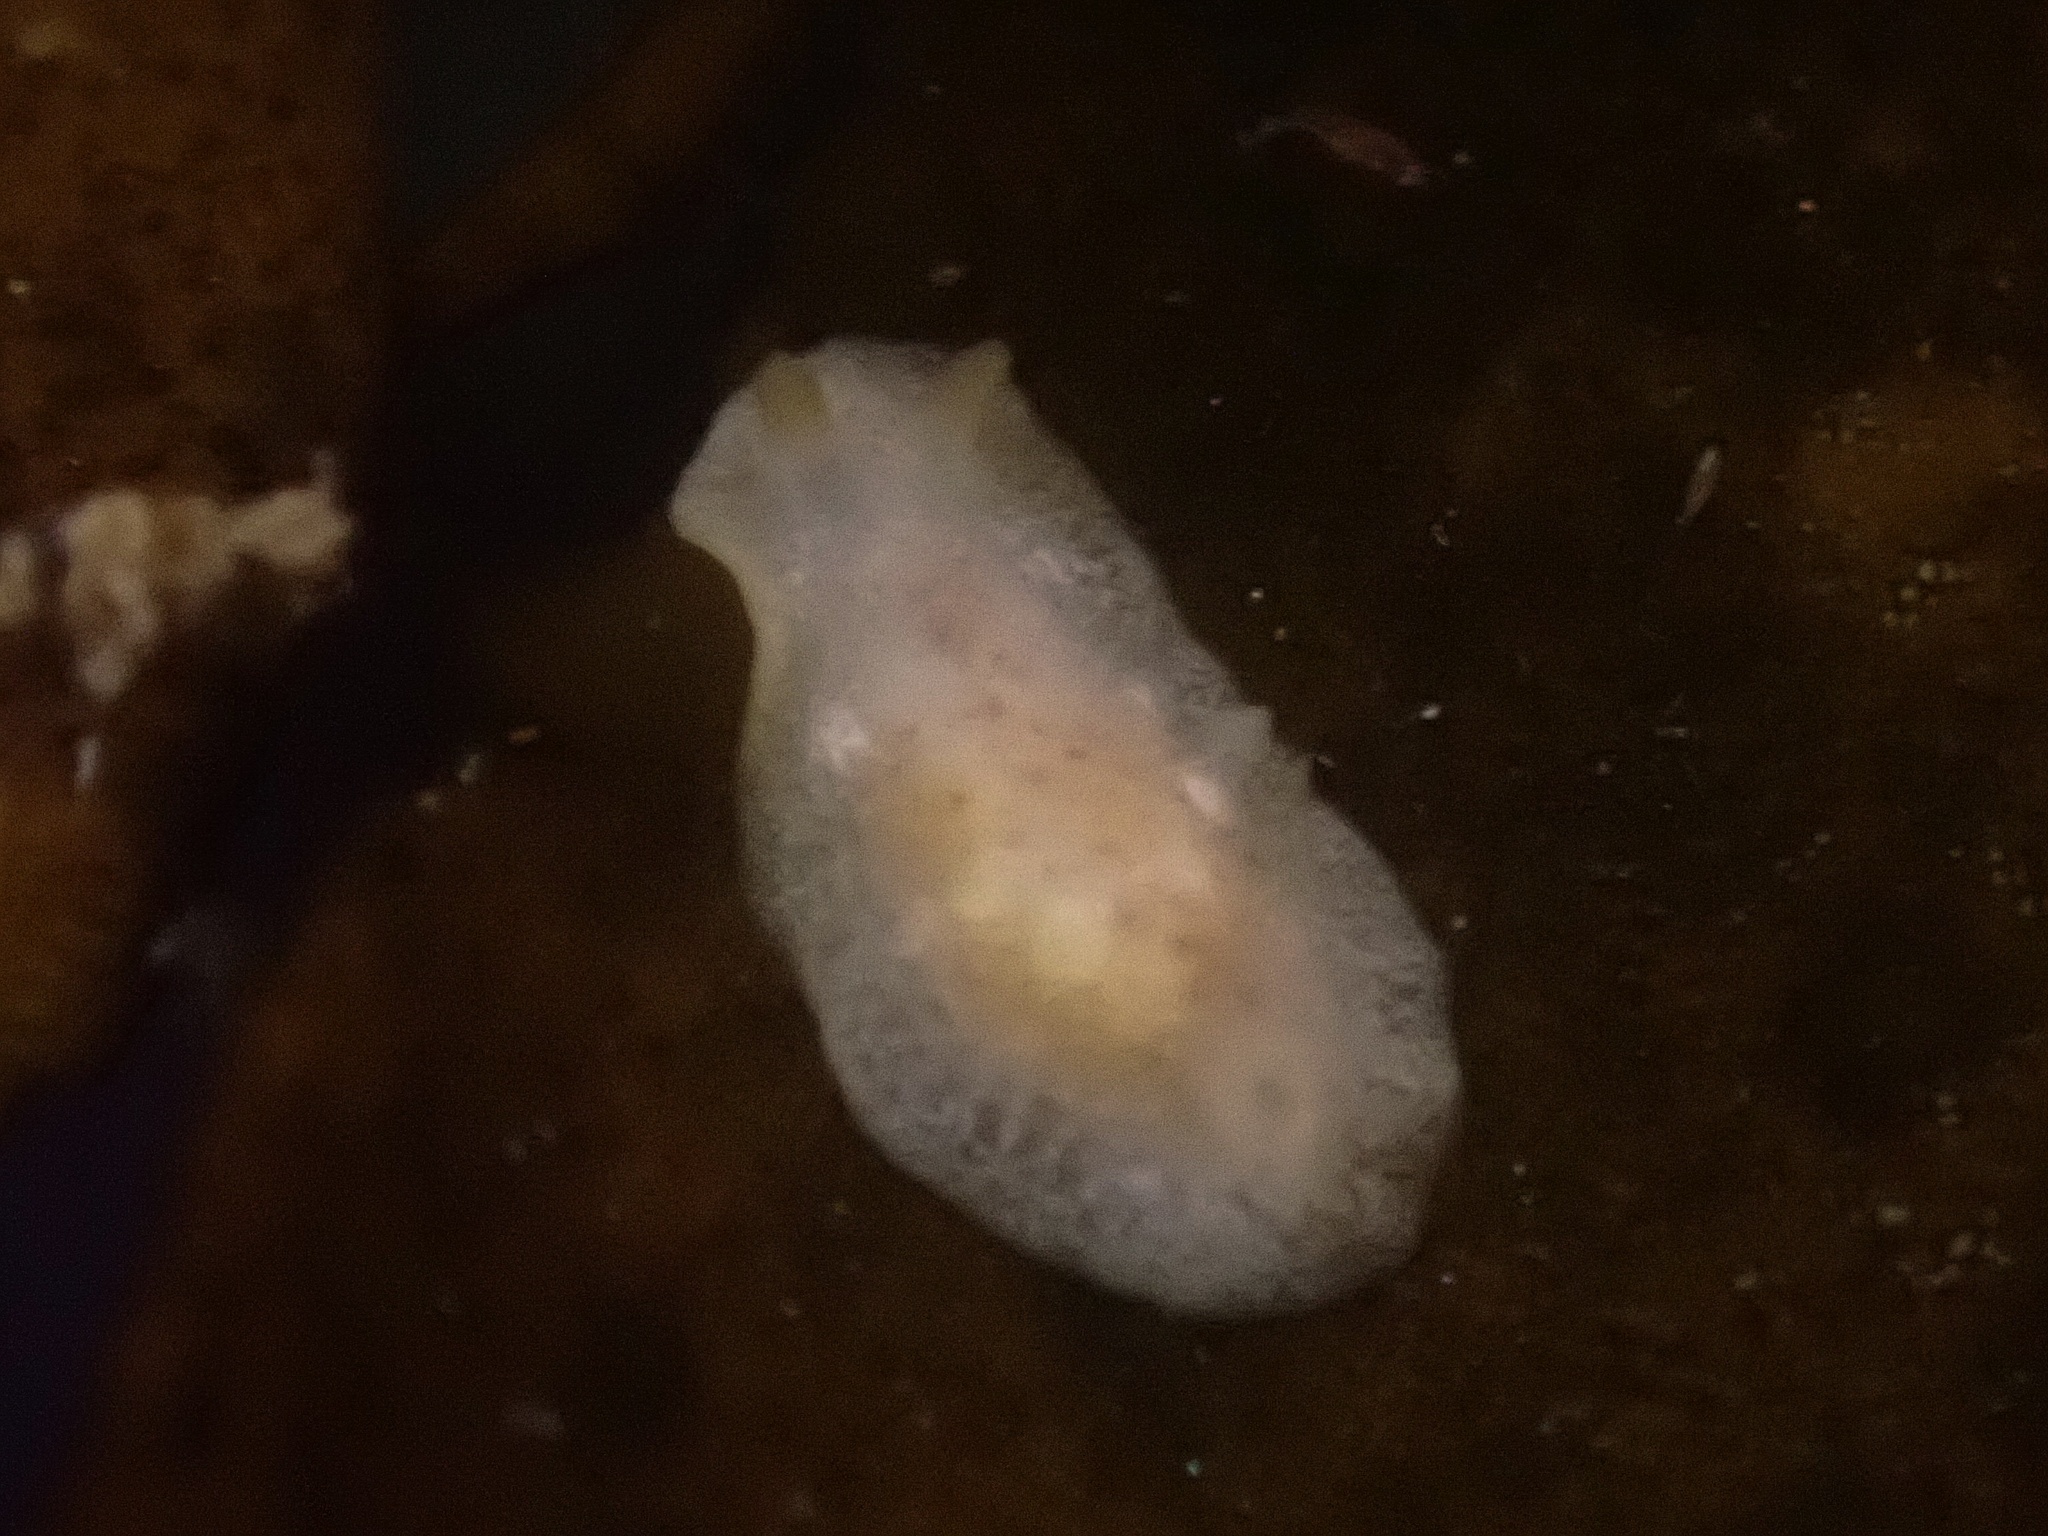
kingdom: Animalia
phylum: Mollusca
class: Gastropoda
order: Nudibranchia
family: Dendrodorididae
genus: Doriopsilla
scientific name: Doriopsilla rowena
